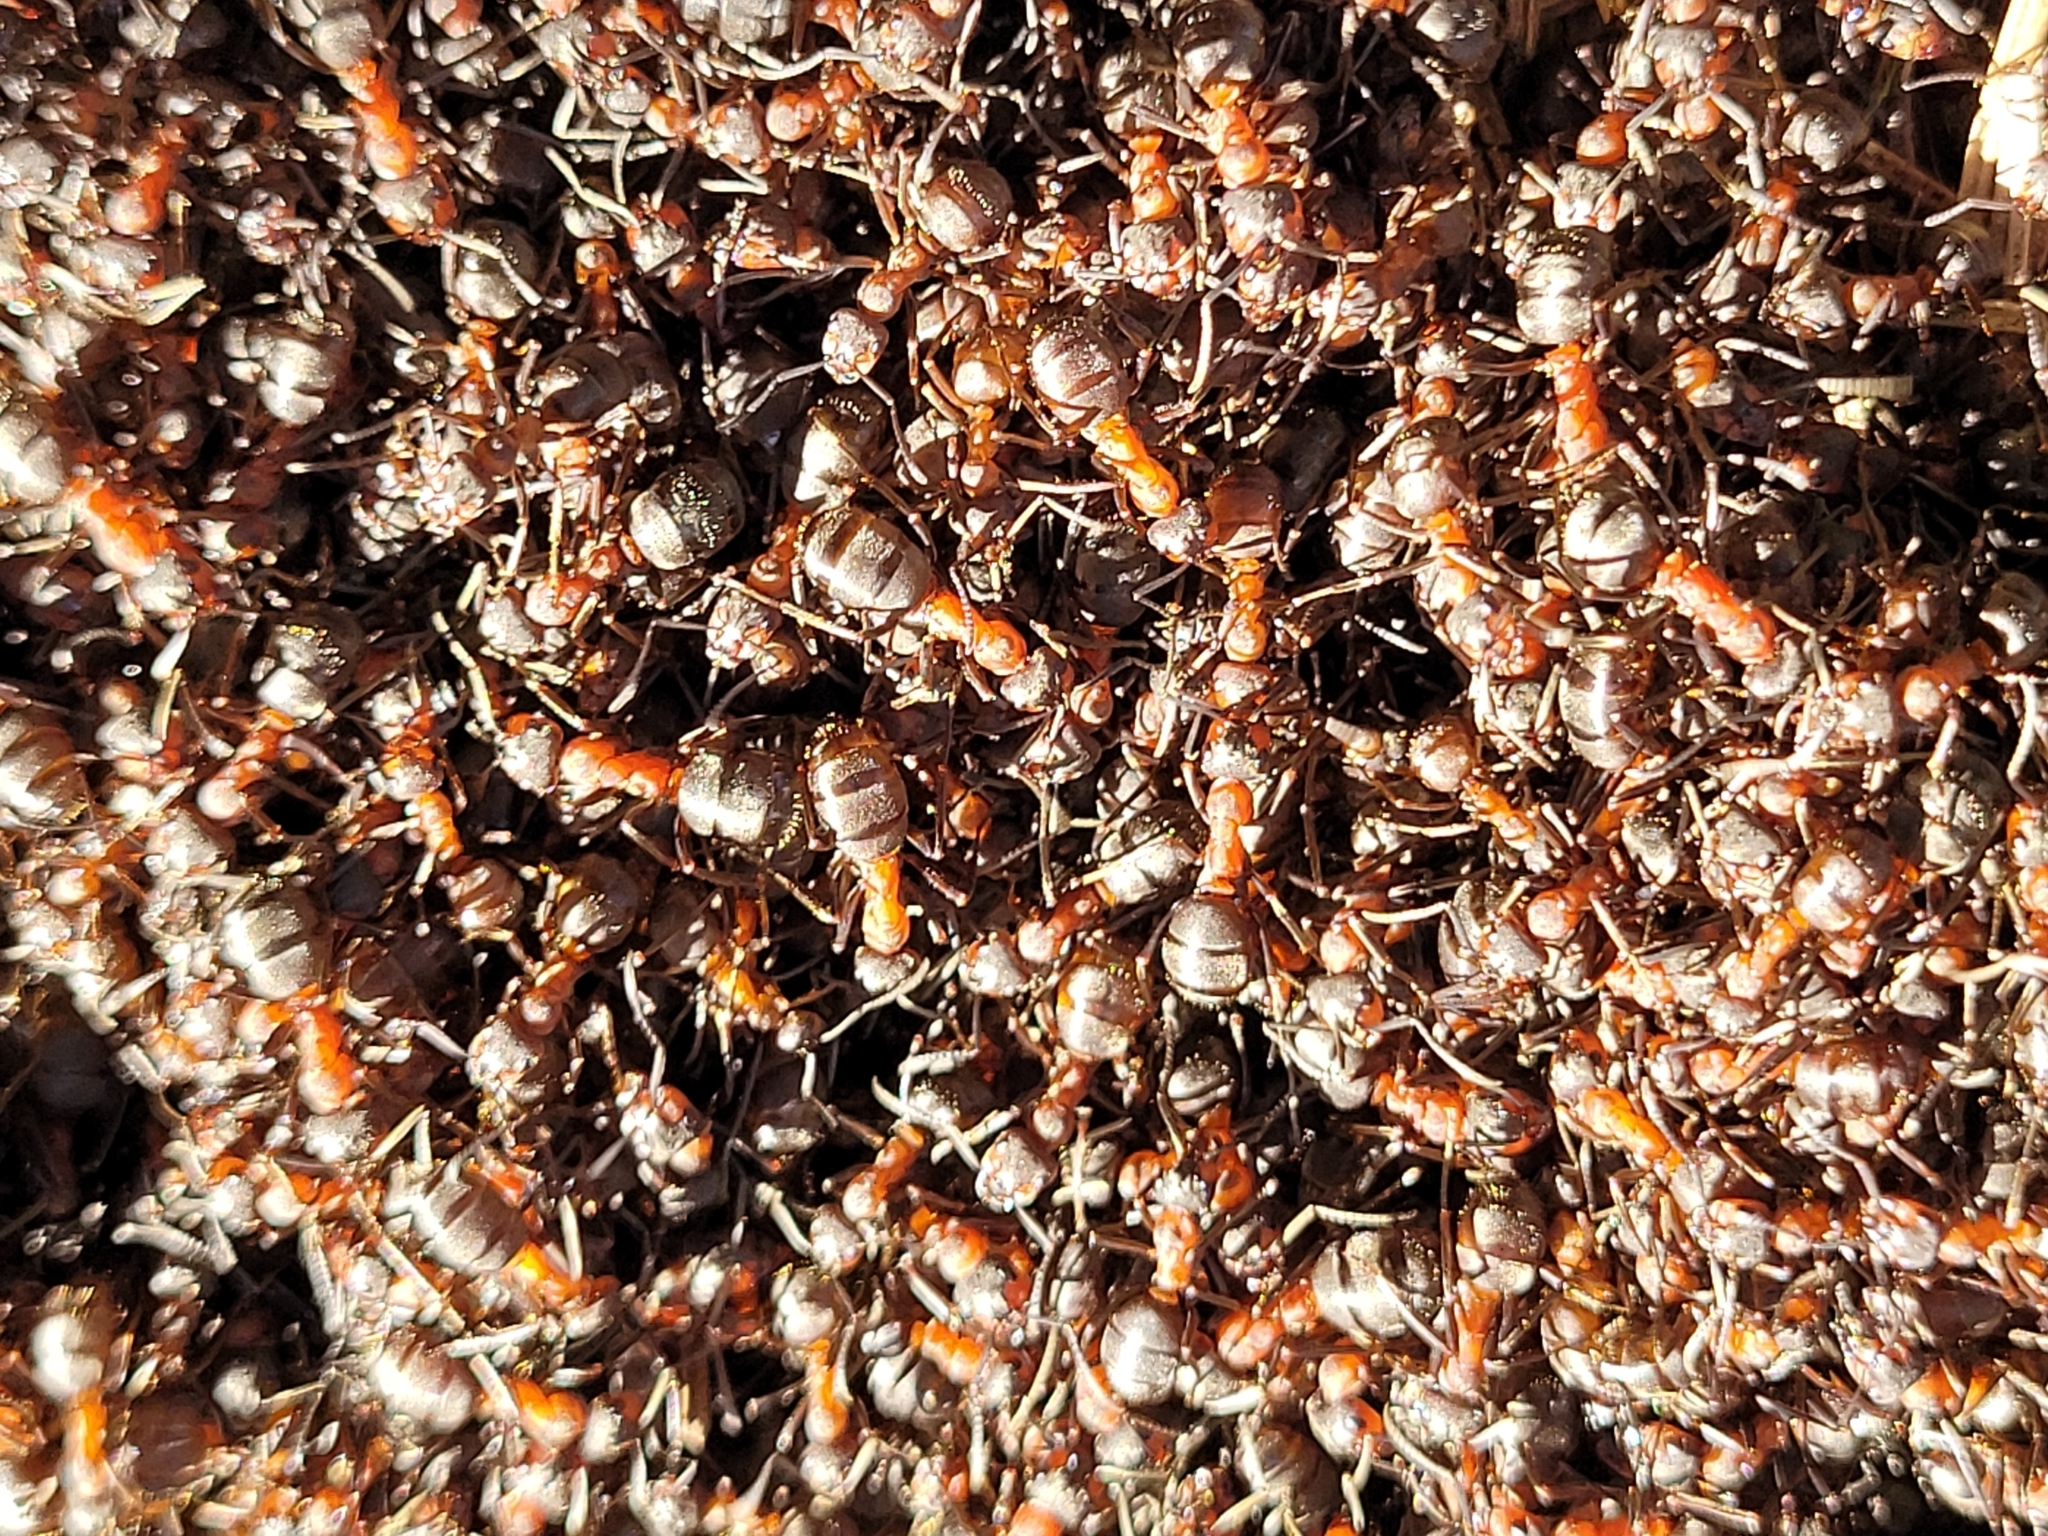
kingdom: Animalia
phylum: Arthropoda
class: Insecta
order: Hymenoptera
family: Formicidae
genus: Formica
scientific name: Formica
